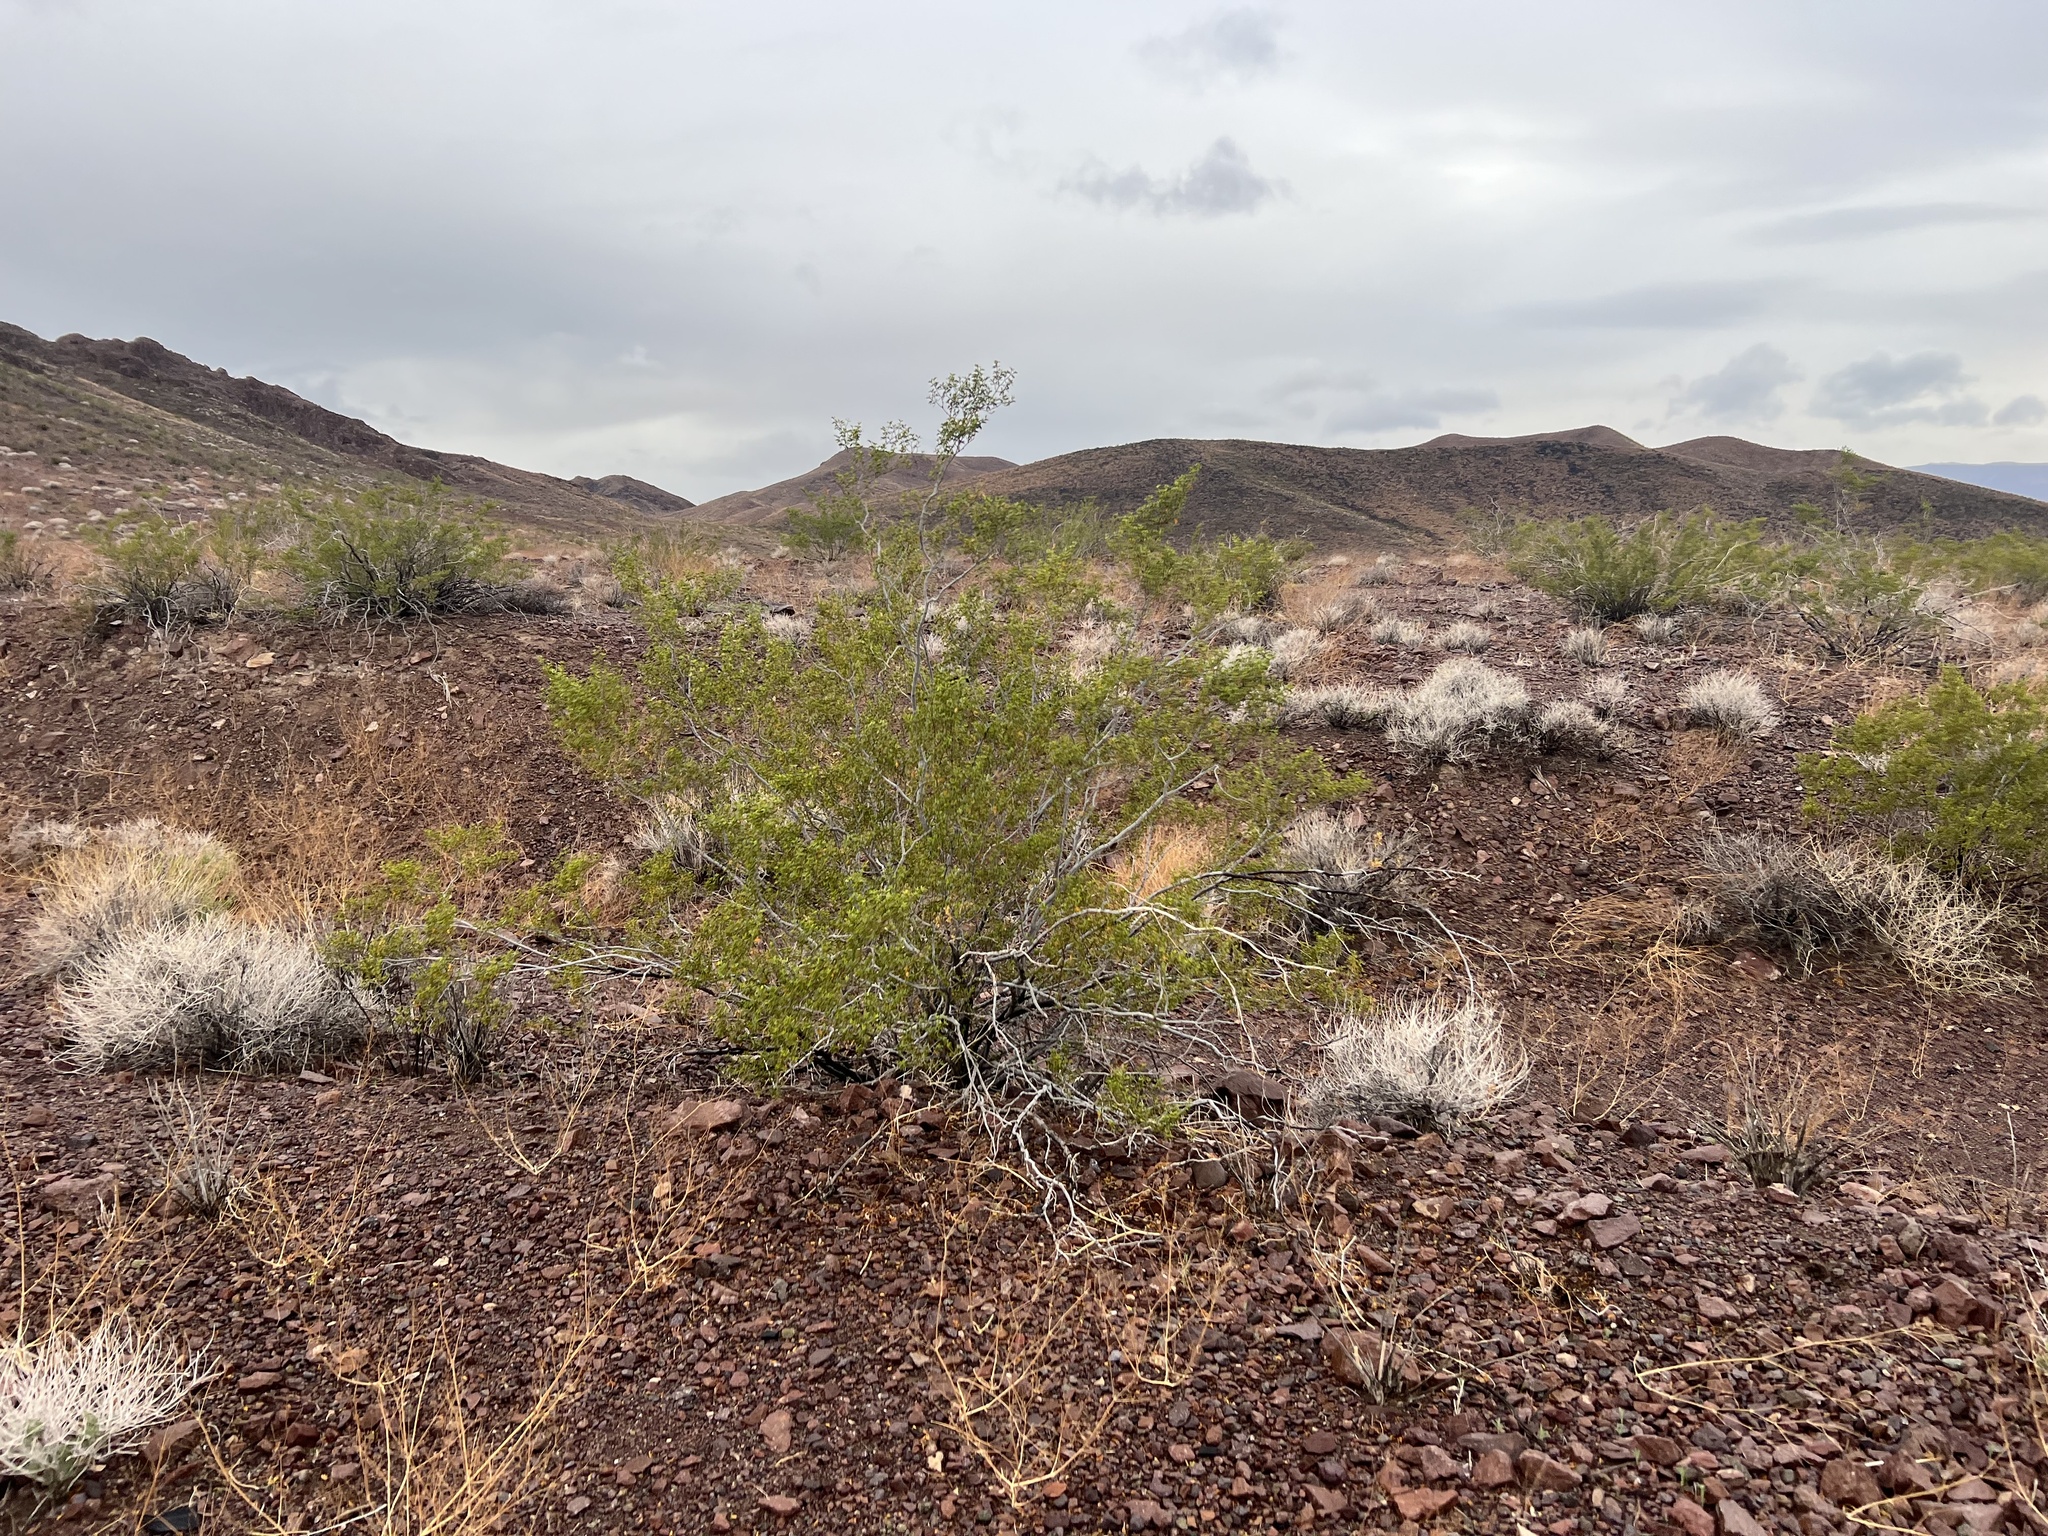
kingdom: Plantae
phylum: Tracheophyta
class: Magnoliopsida
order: Zygophyllales
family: Zygophyllaceae
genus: Larrea
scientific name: Larrea tridentata
